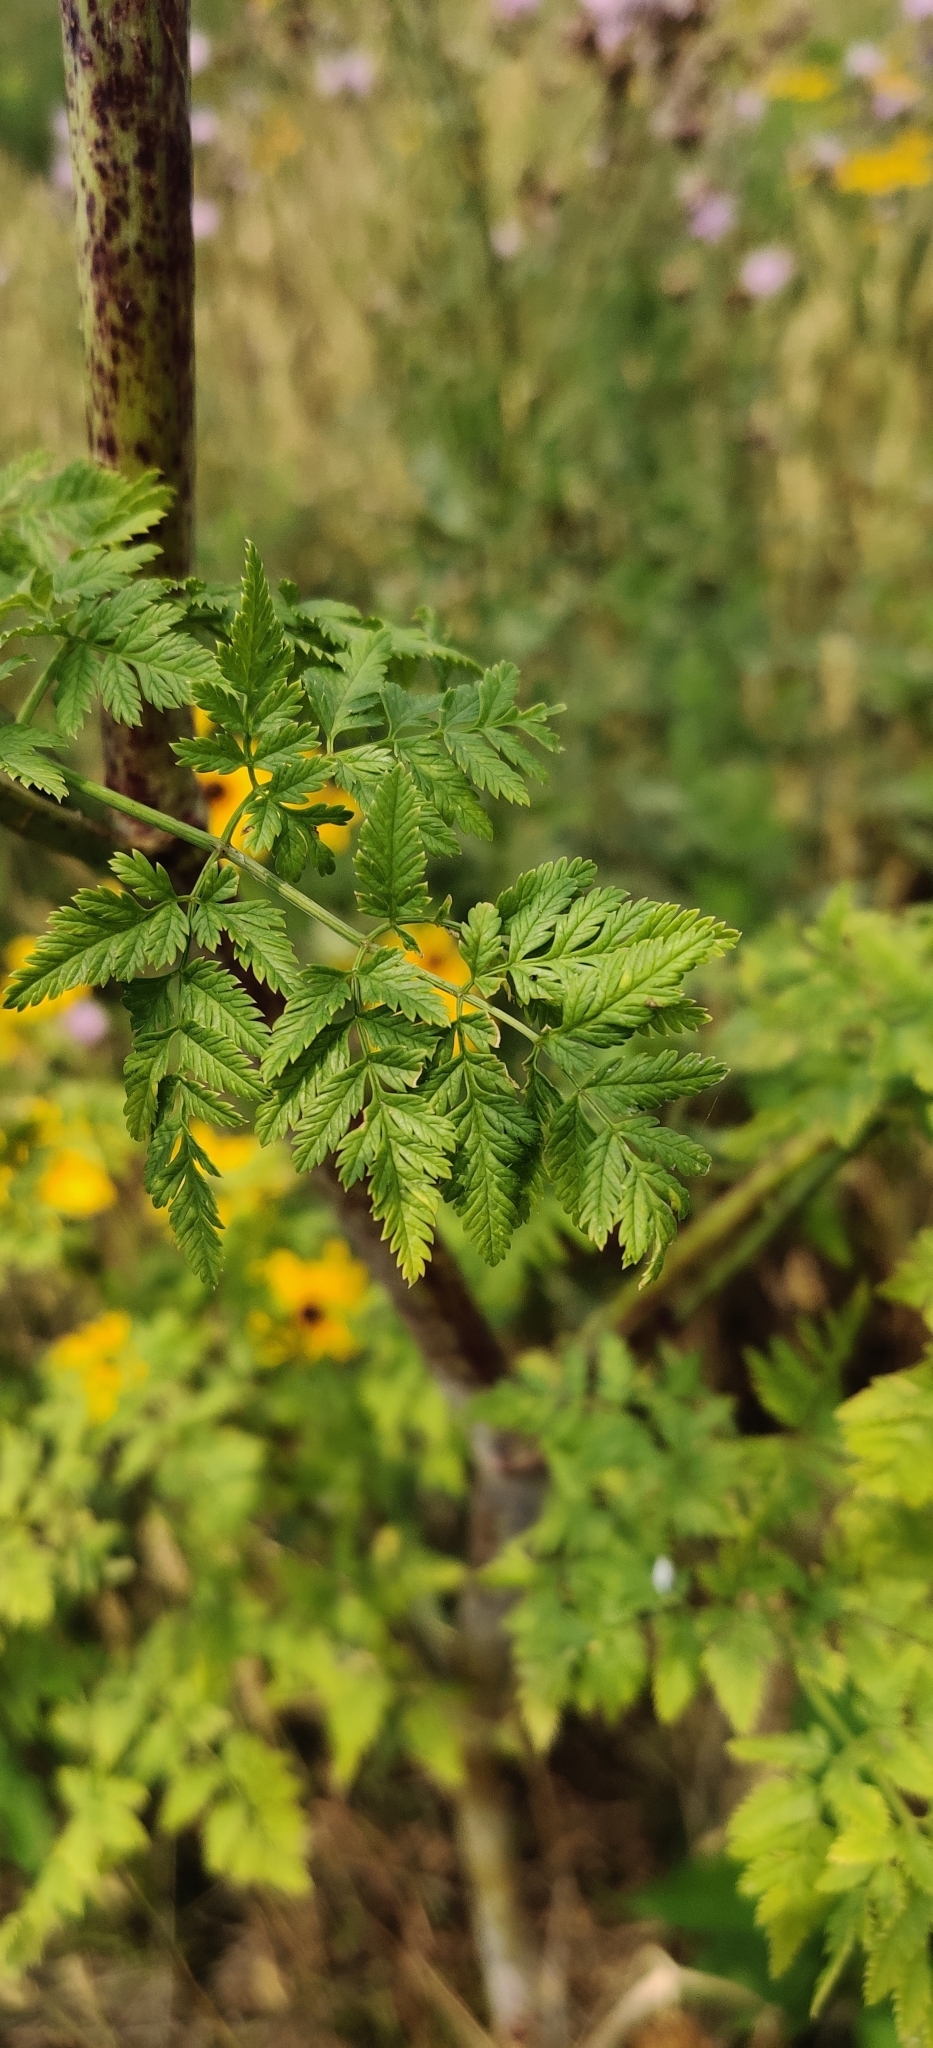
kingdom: Plantae
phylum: Tracheophyta
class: Magnoliopsida
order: Apiales
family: Apiaceae
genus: Conium
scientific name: Conium maculatum
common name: Hemlock
